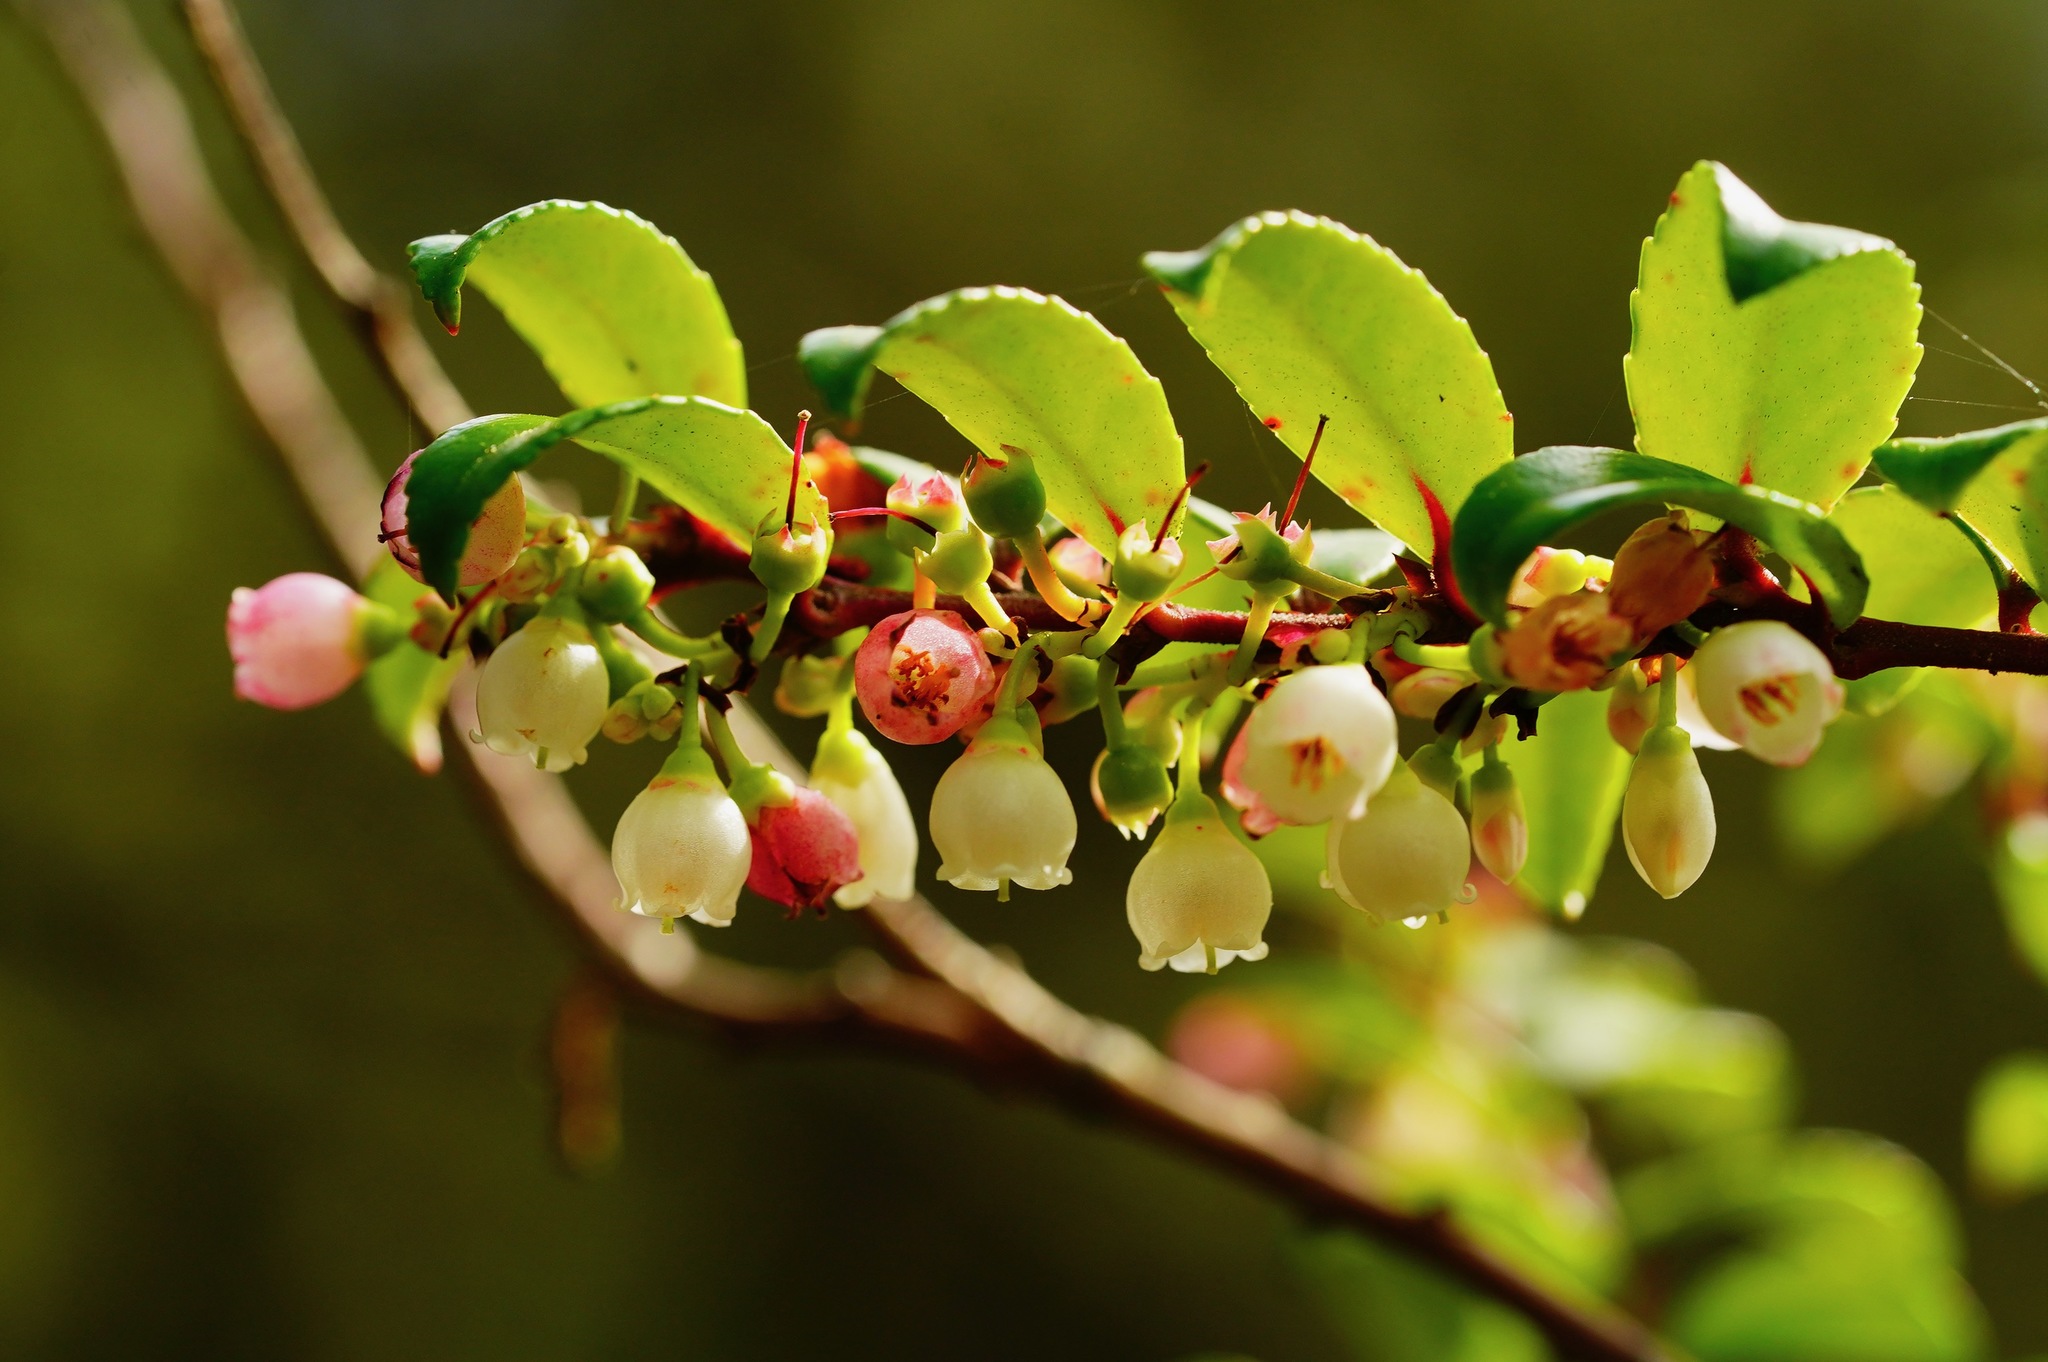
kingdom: Plantae
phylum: Tracheophyta
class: Magnoliopsida
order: Ericales
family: Ericaceae
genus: Vaccinium
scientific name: Vaccinium ovatum
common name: California-huckleberry
